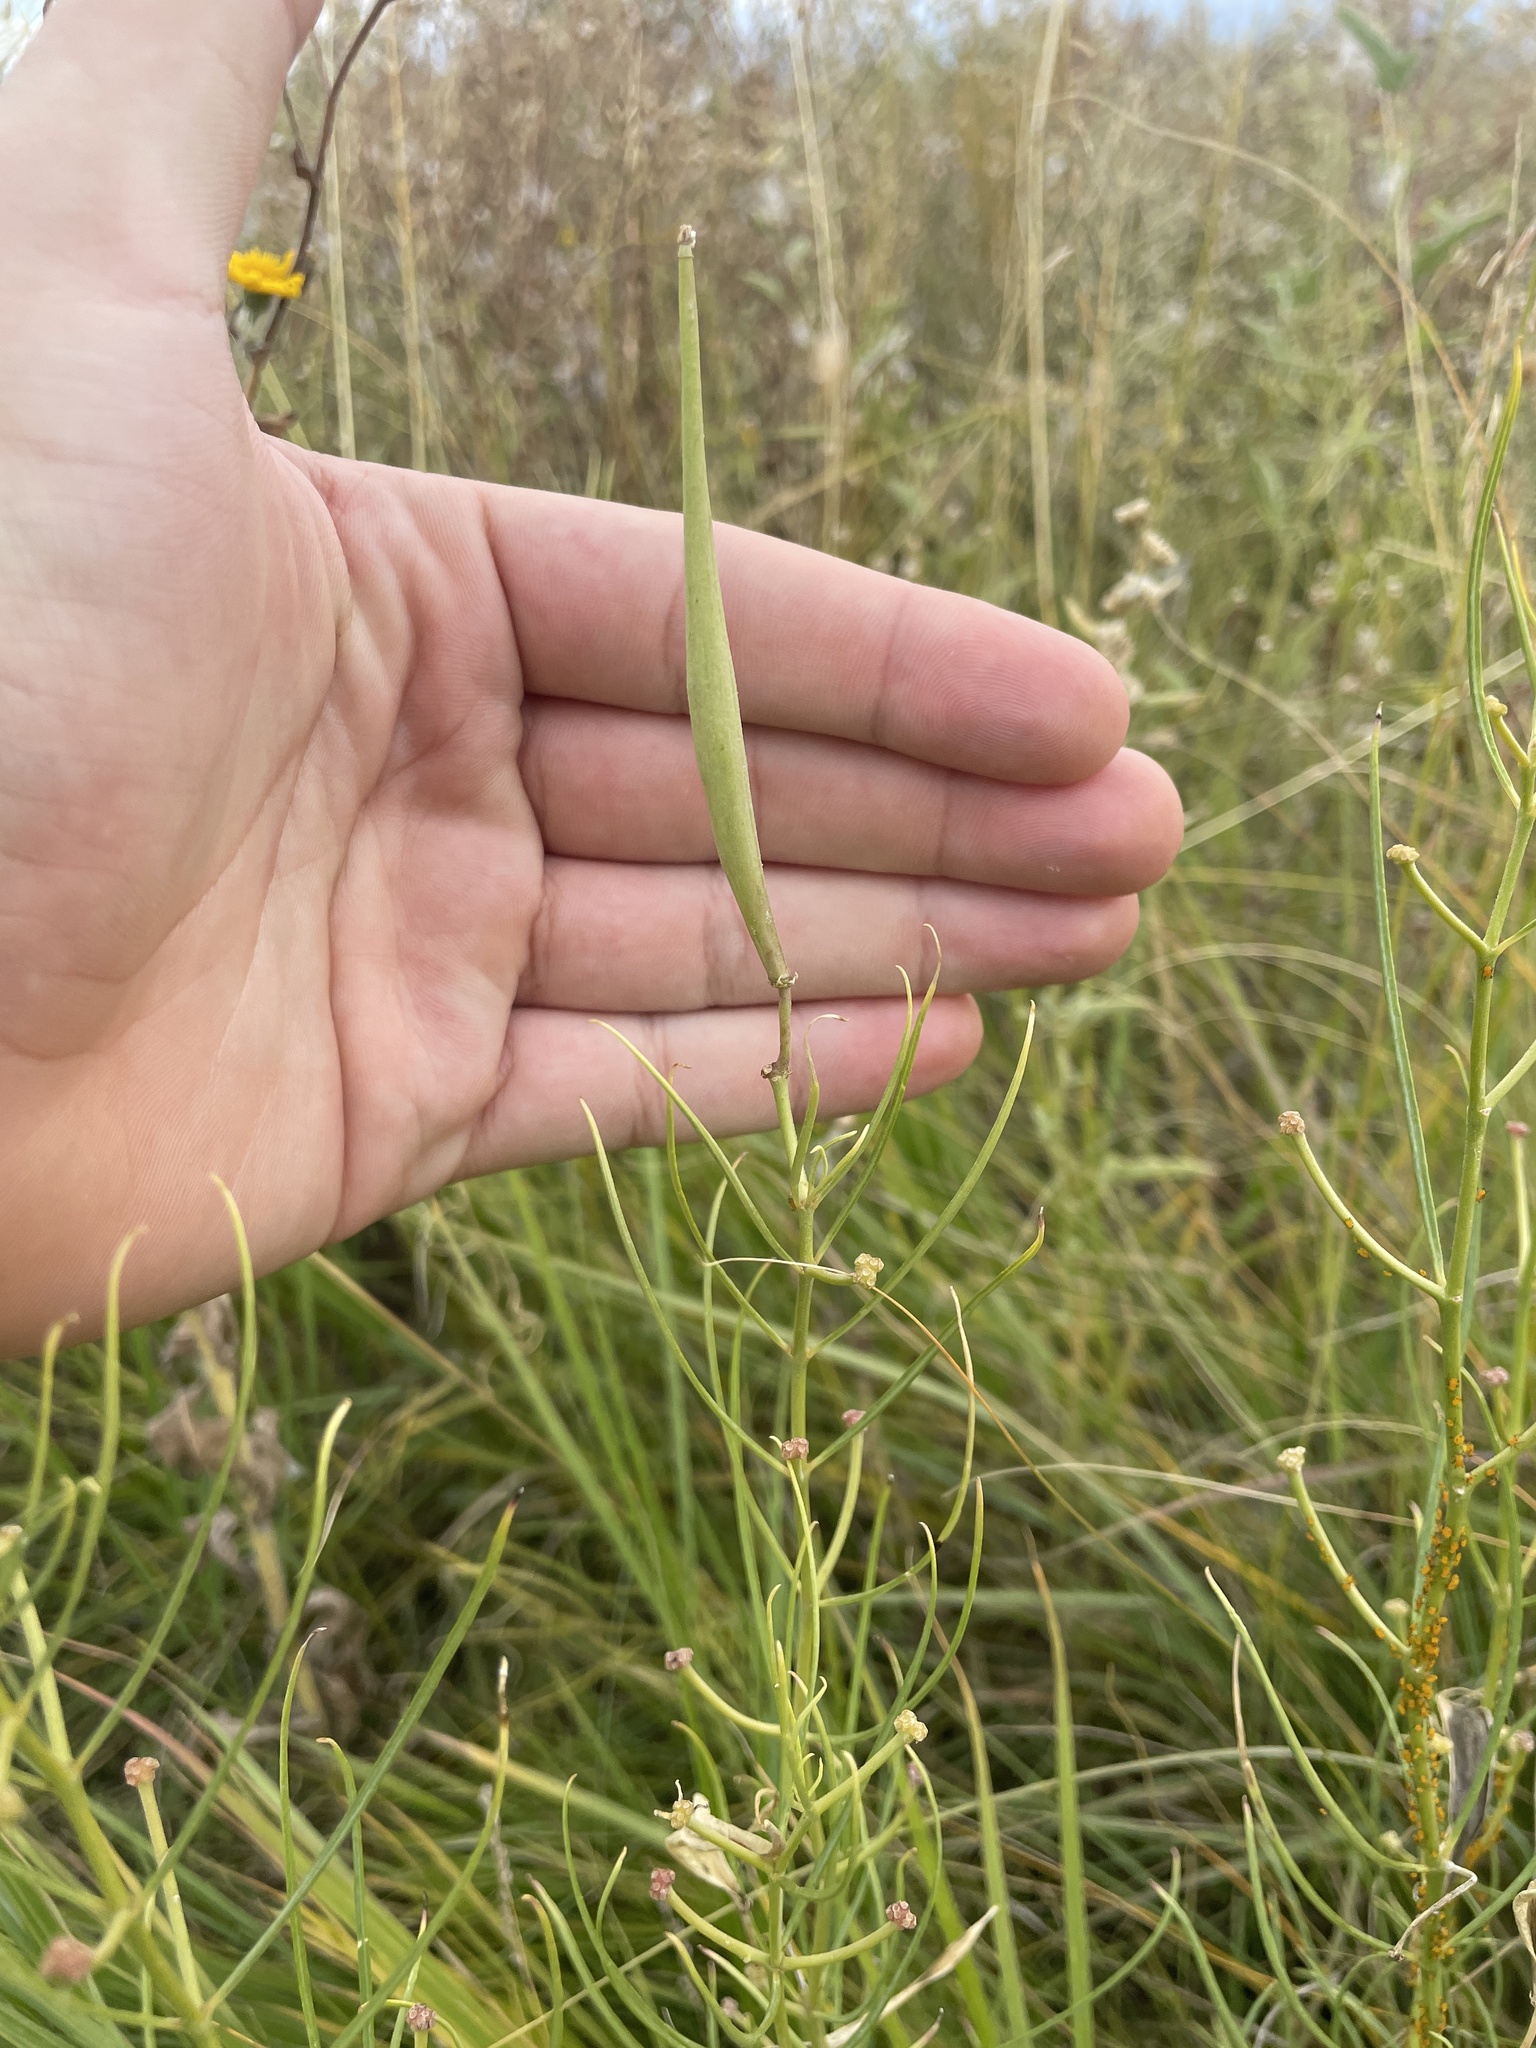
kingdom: Plantae
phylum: Tracheophyta
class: Magnoliopsida
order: Gentianales
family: Apocynaceae
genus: Asclepias
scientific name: Asclepias subverticillata
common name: Horsetail milkweed
